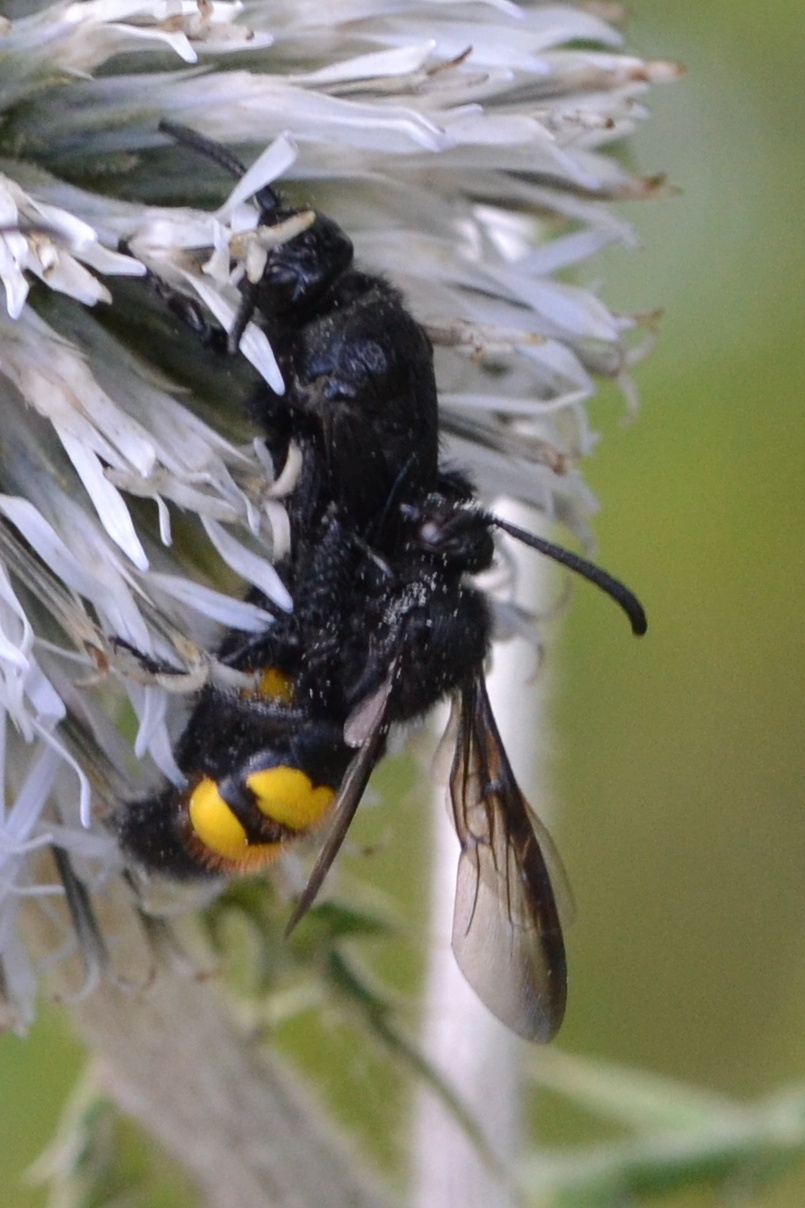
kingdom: Animalia
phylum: Arthropoda
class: Insecta
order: Hymenoptera
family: Scoliidae
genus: Scolia
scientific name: Scolia hirta
